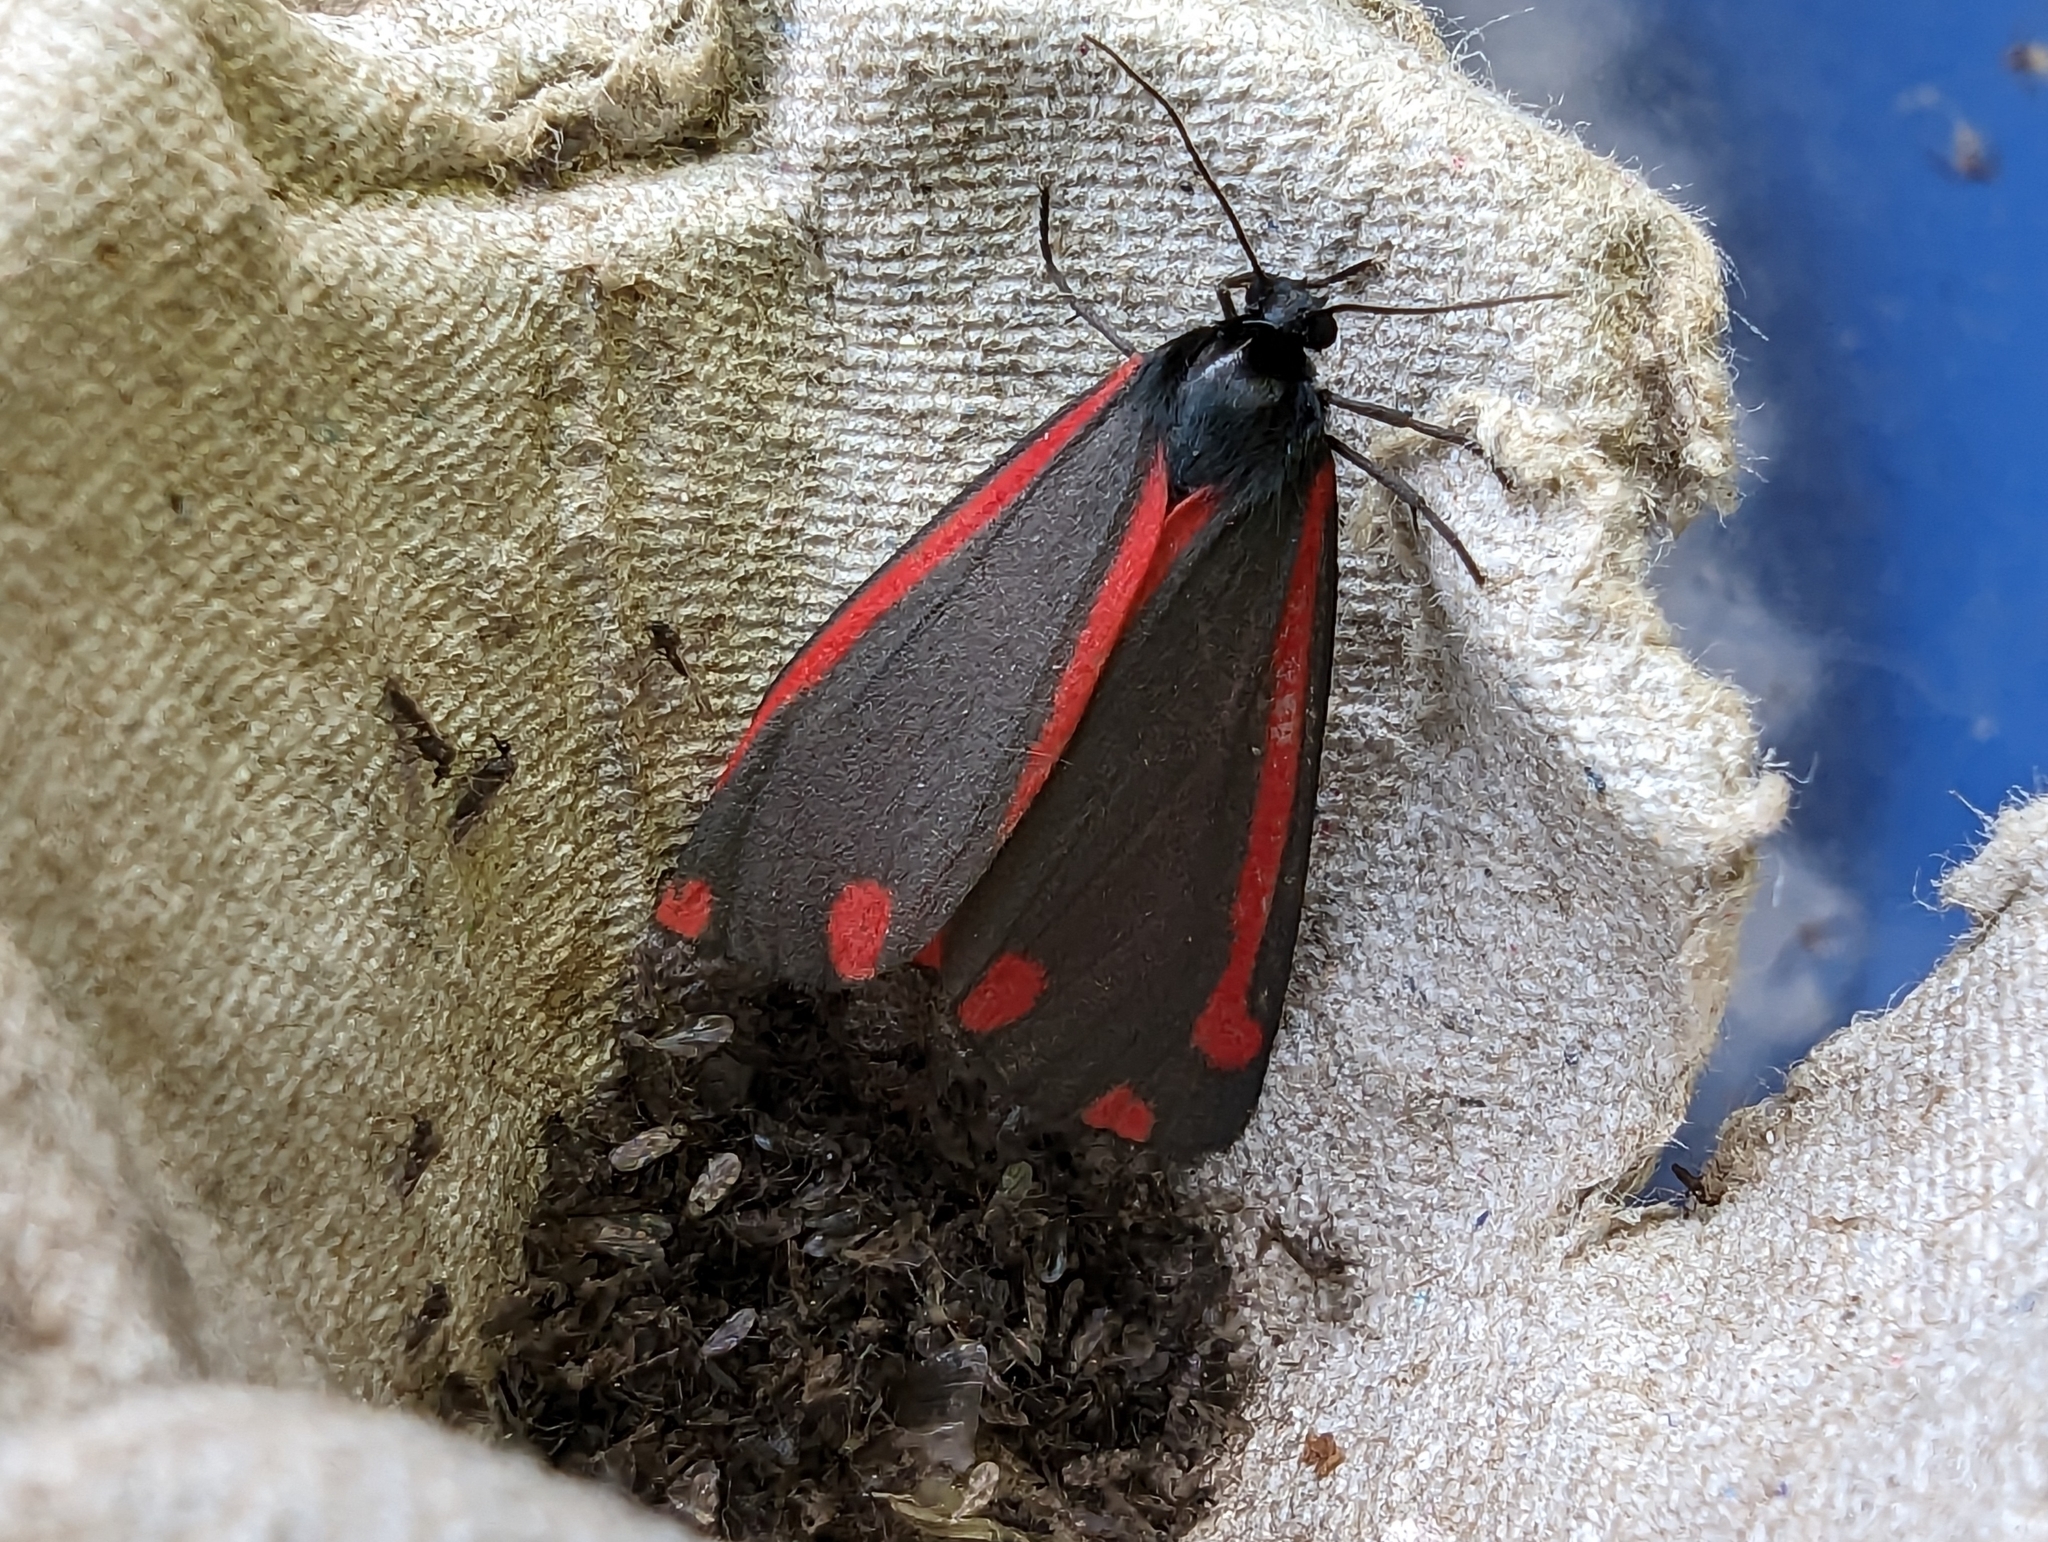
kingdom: Animalia
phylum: Arthropoda
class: Insecta
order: Lepidoptera
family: Erebidae
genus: Tyria
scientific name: Tyria jacobaeae
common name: Cinnabar
